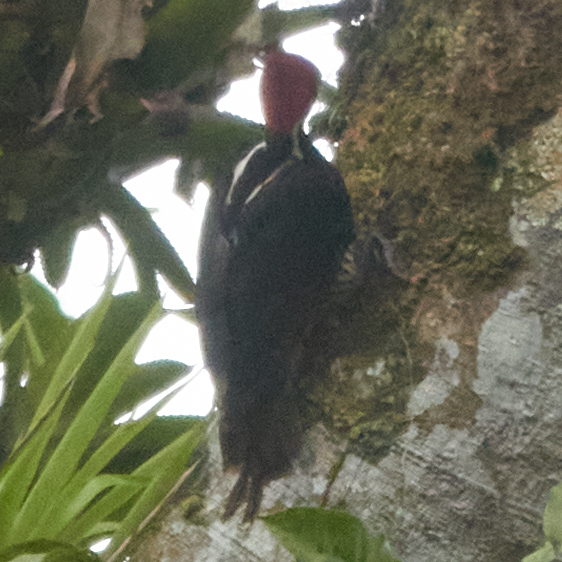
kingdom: Animalia
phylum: Chordata
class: Aves
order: Piciformes
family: Picidae
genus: Campephilus
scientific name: Campephilus guatemalensis
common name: Pale-billed woodpecker
